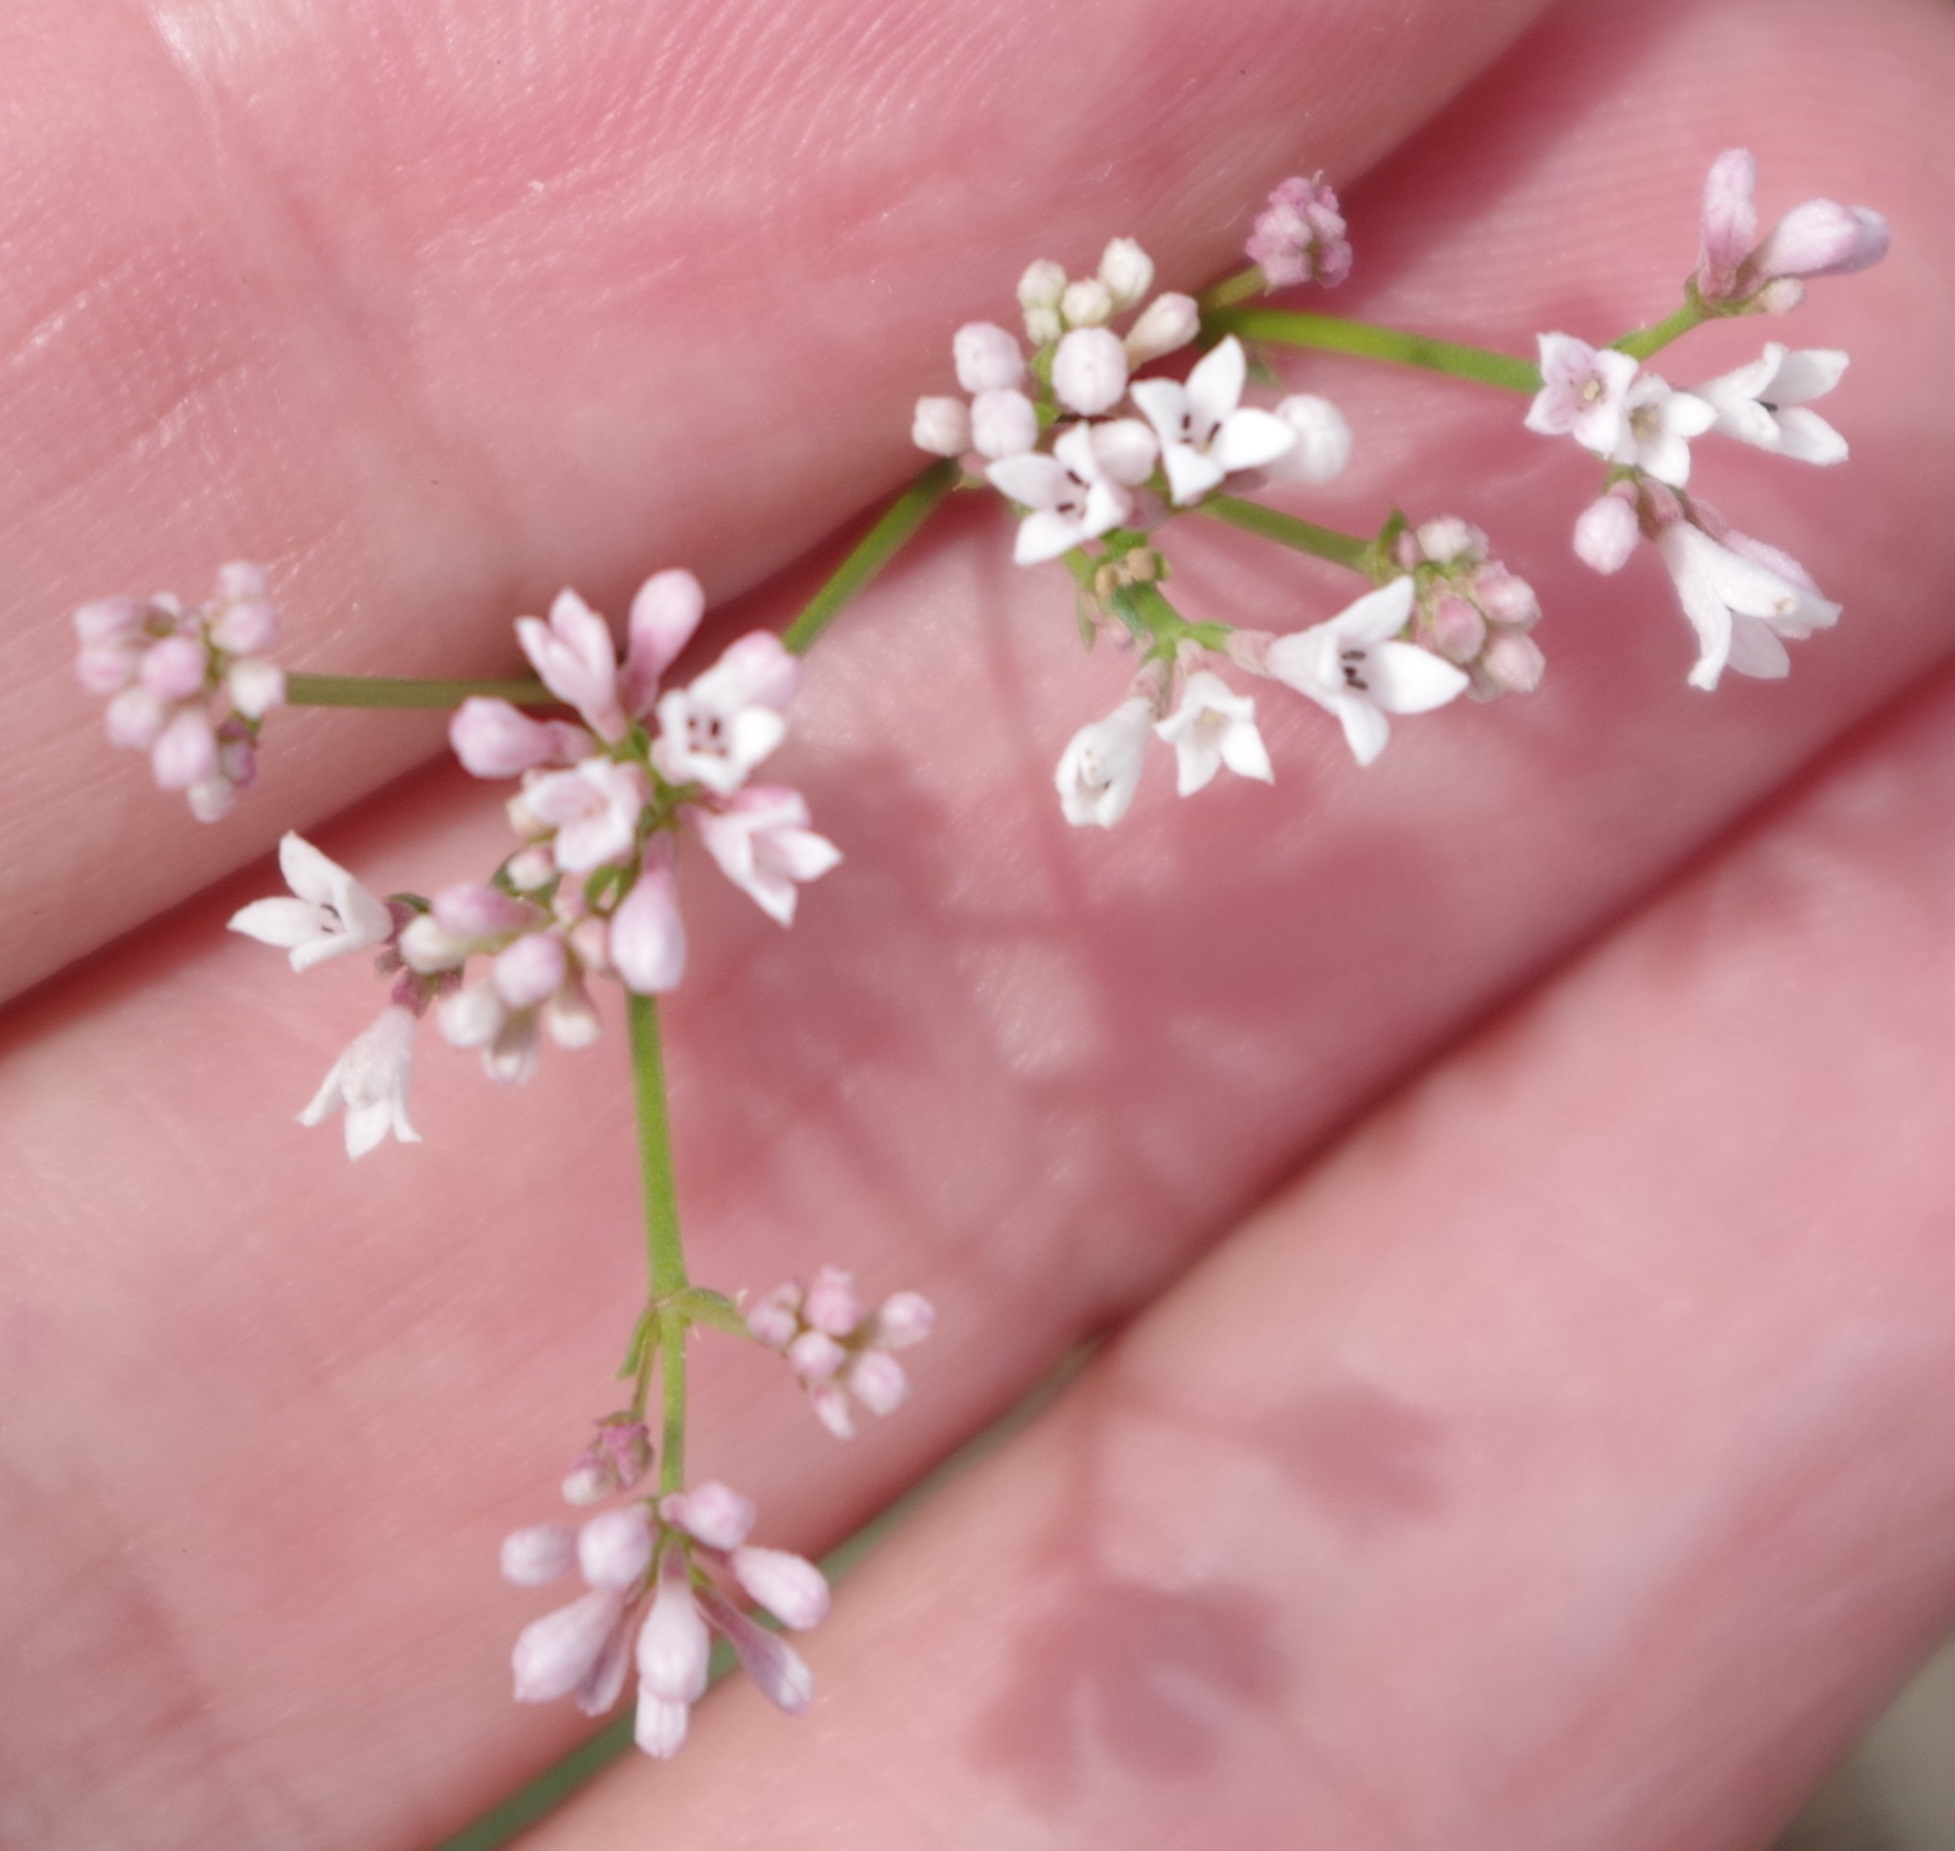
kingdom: Plantae
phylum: Tracheophyta
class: Magnoliopsida
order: Gentianales
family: Rubiaceae
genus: Cynanchica
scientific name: Cynanchica pyrenaica
